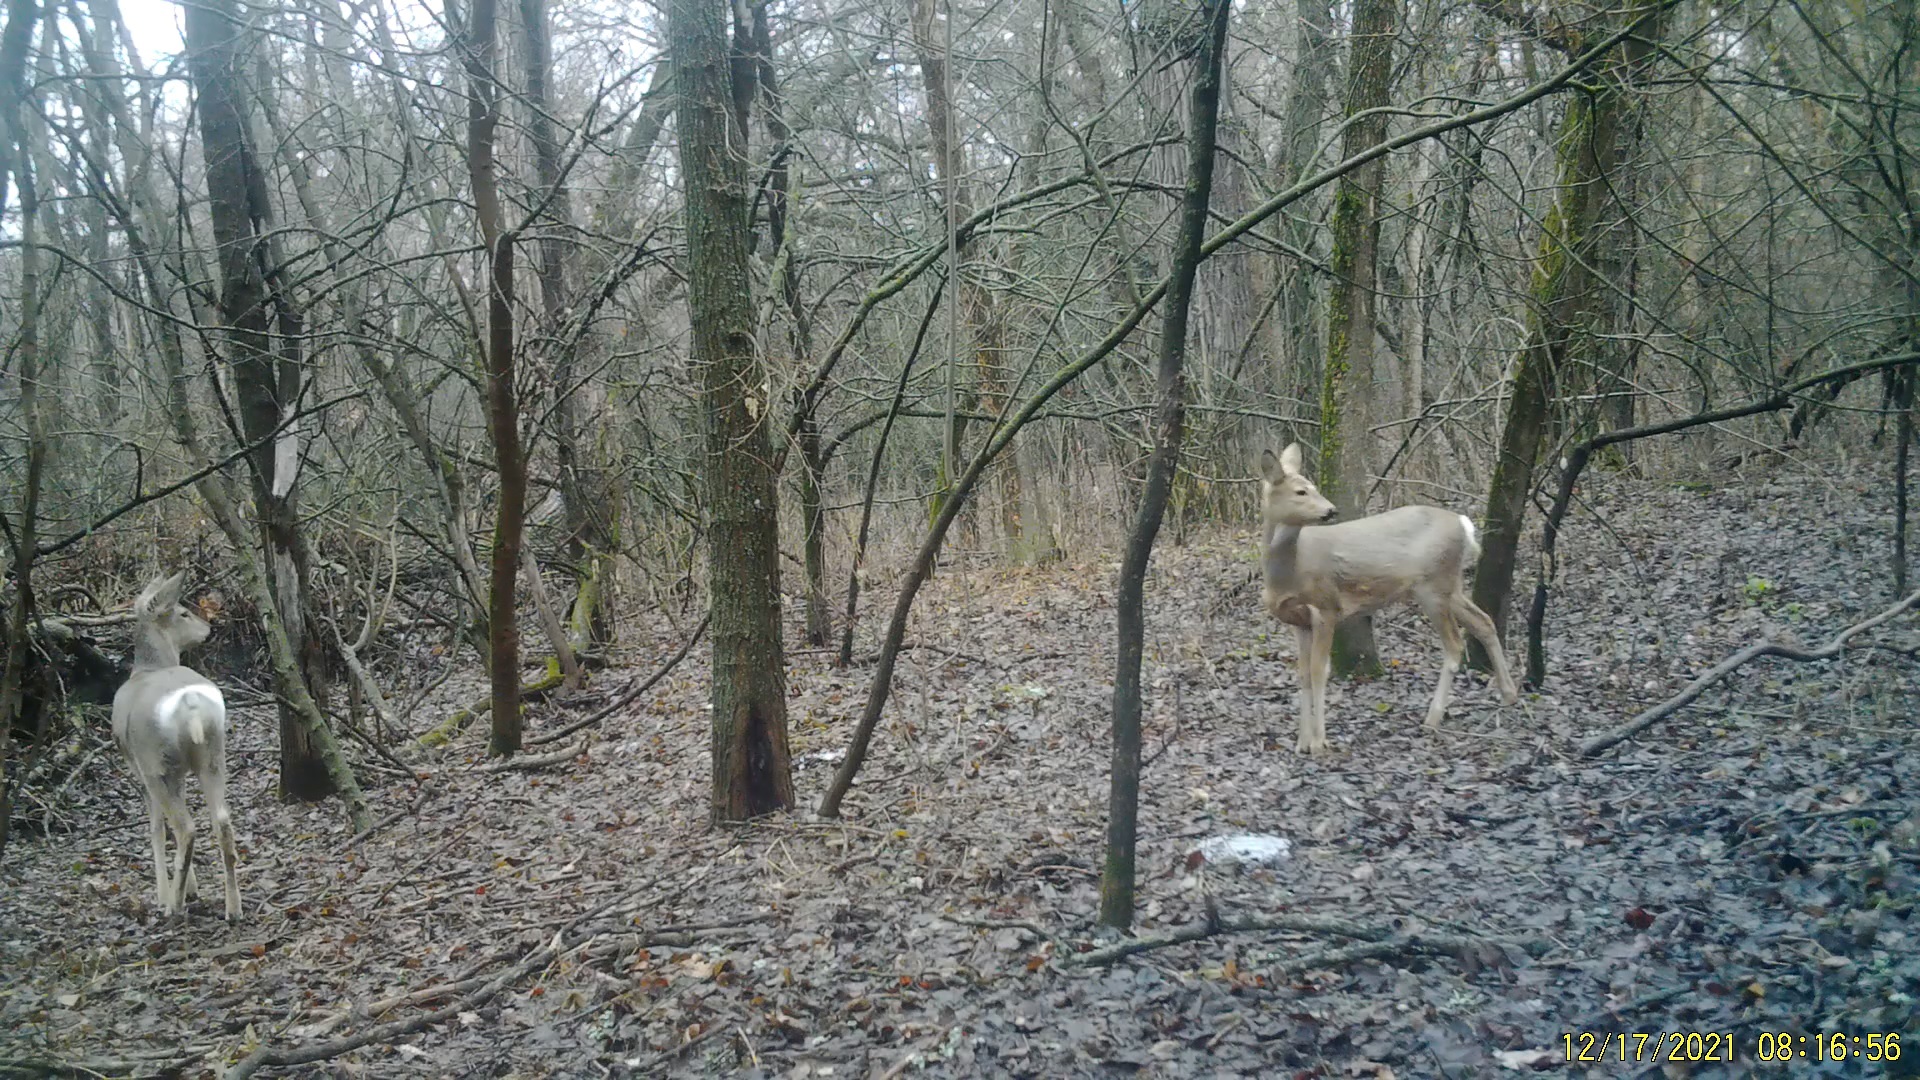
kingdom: Animalia
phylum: Chordata
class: Mammalia
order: Artiodactyla
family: Cervidae
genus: Capreolus
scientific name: Capreolus pygargus
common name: Siberian roe
